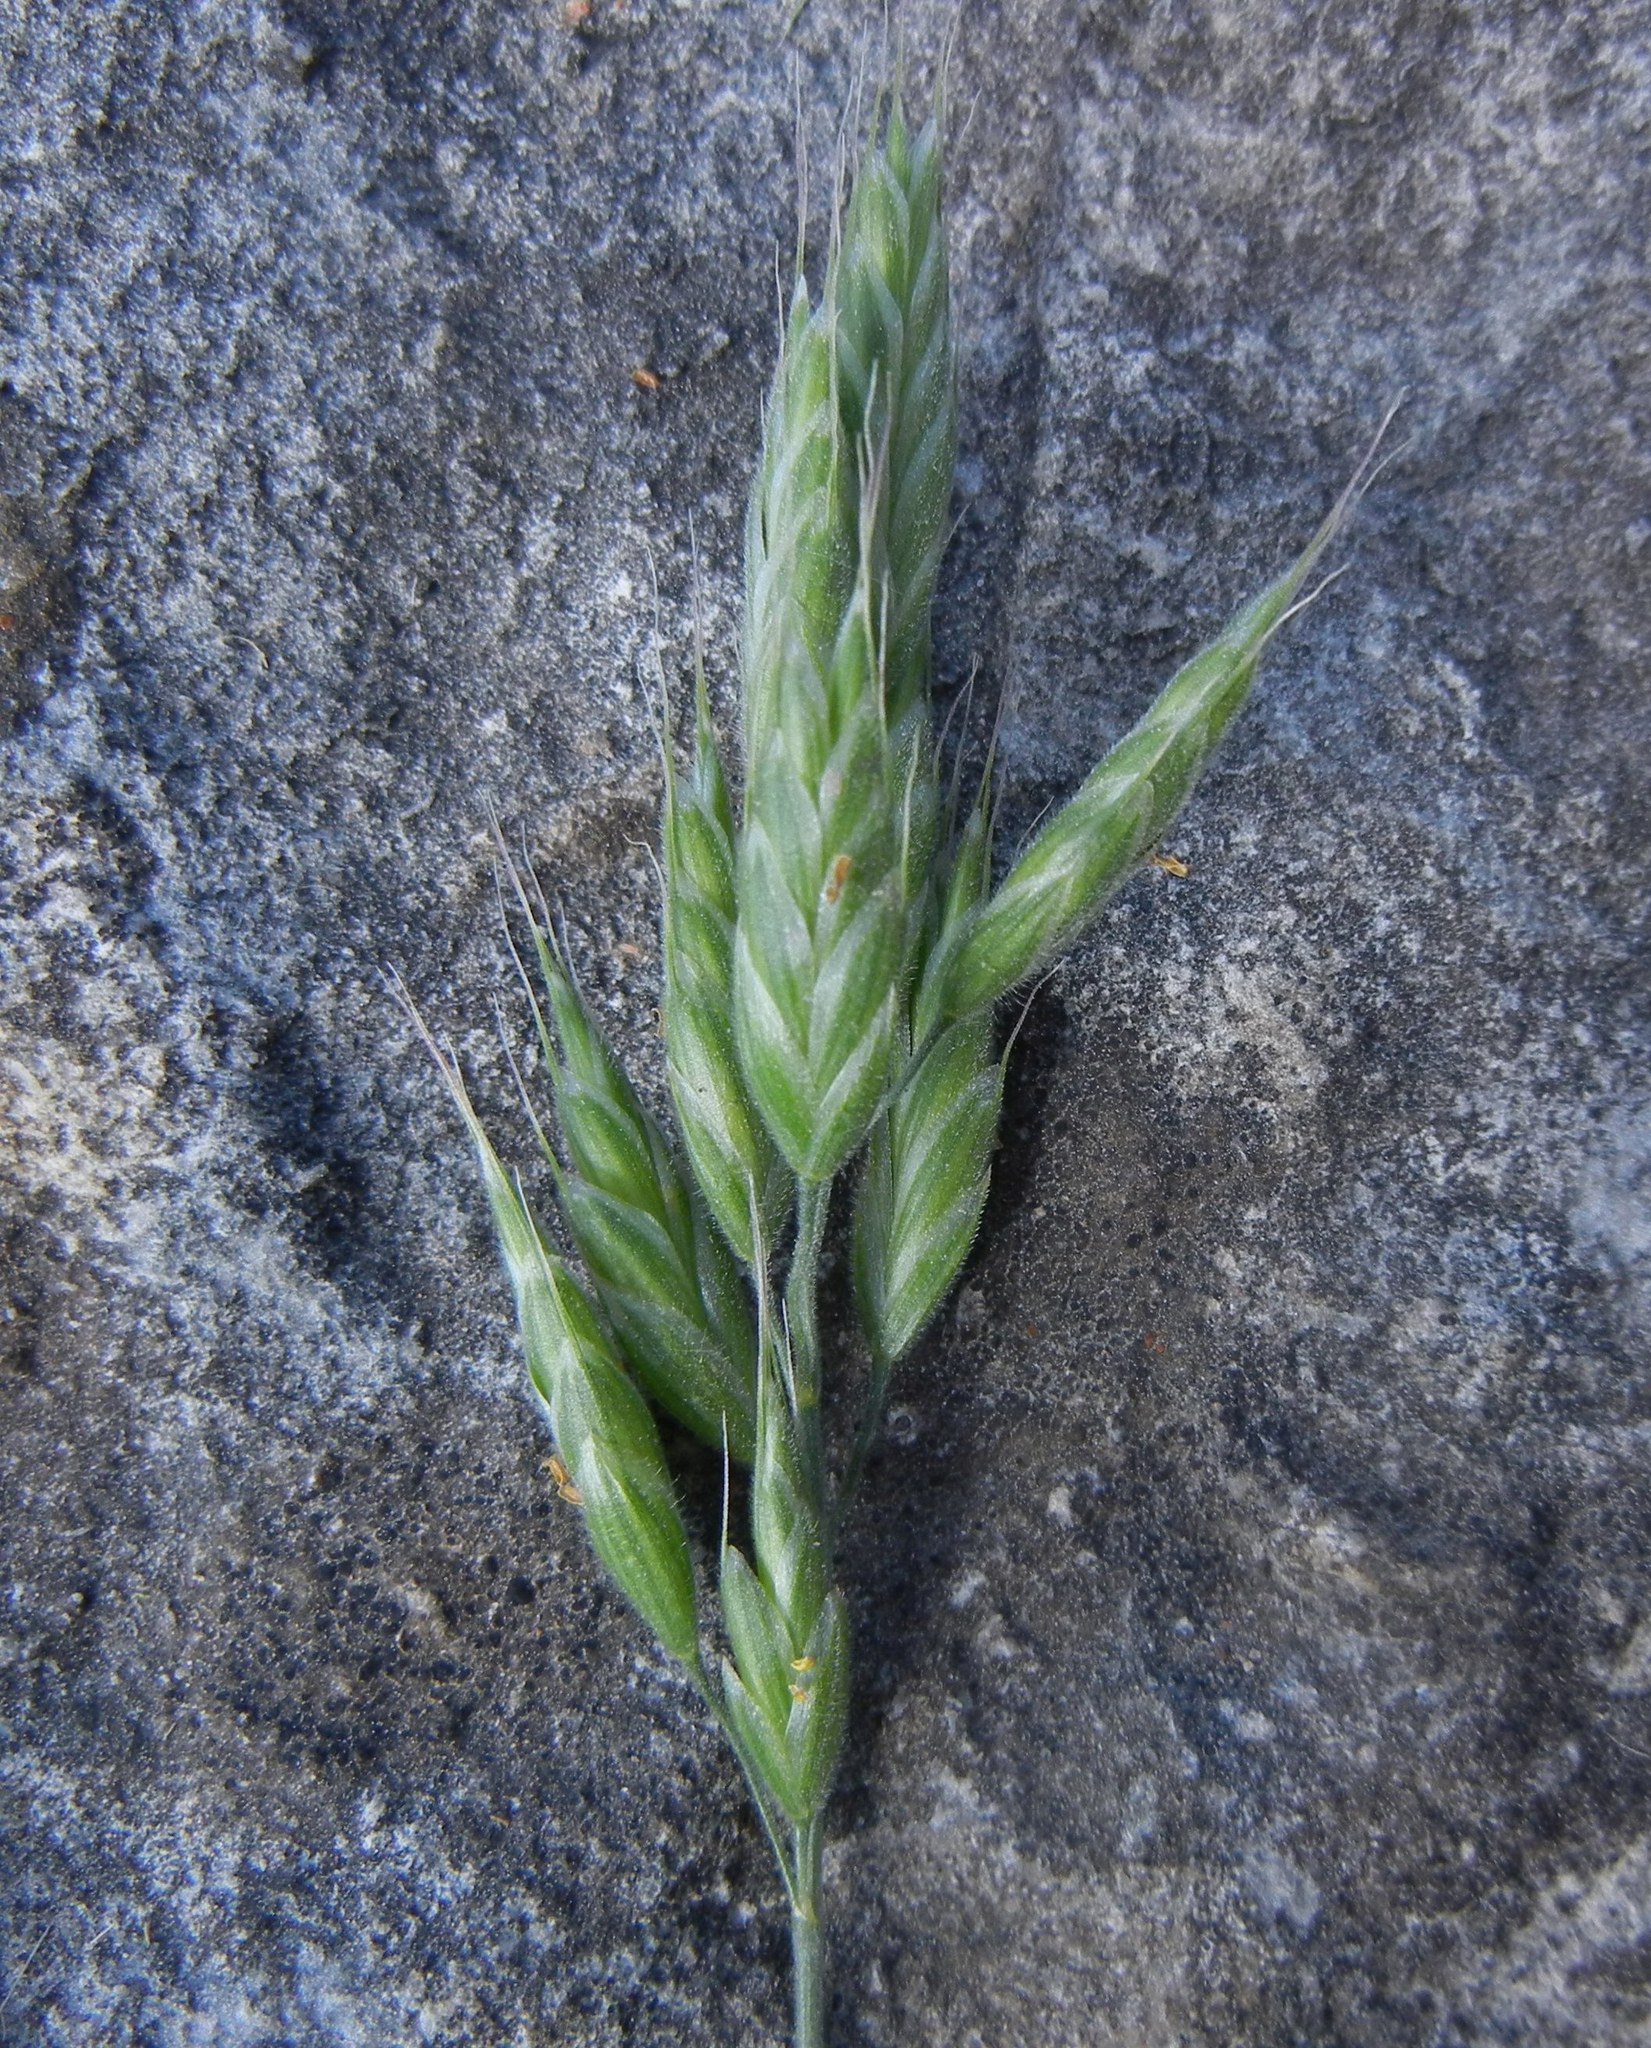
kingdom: Plantae
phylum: Tracheophyta
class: Liliopsida
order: Poales
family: Poaceae
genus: Bromus
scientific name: Bromus hordeaceus
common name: Soft brome
